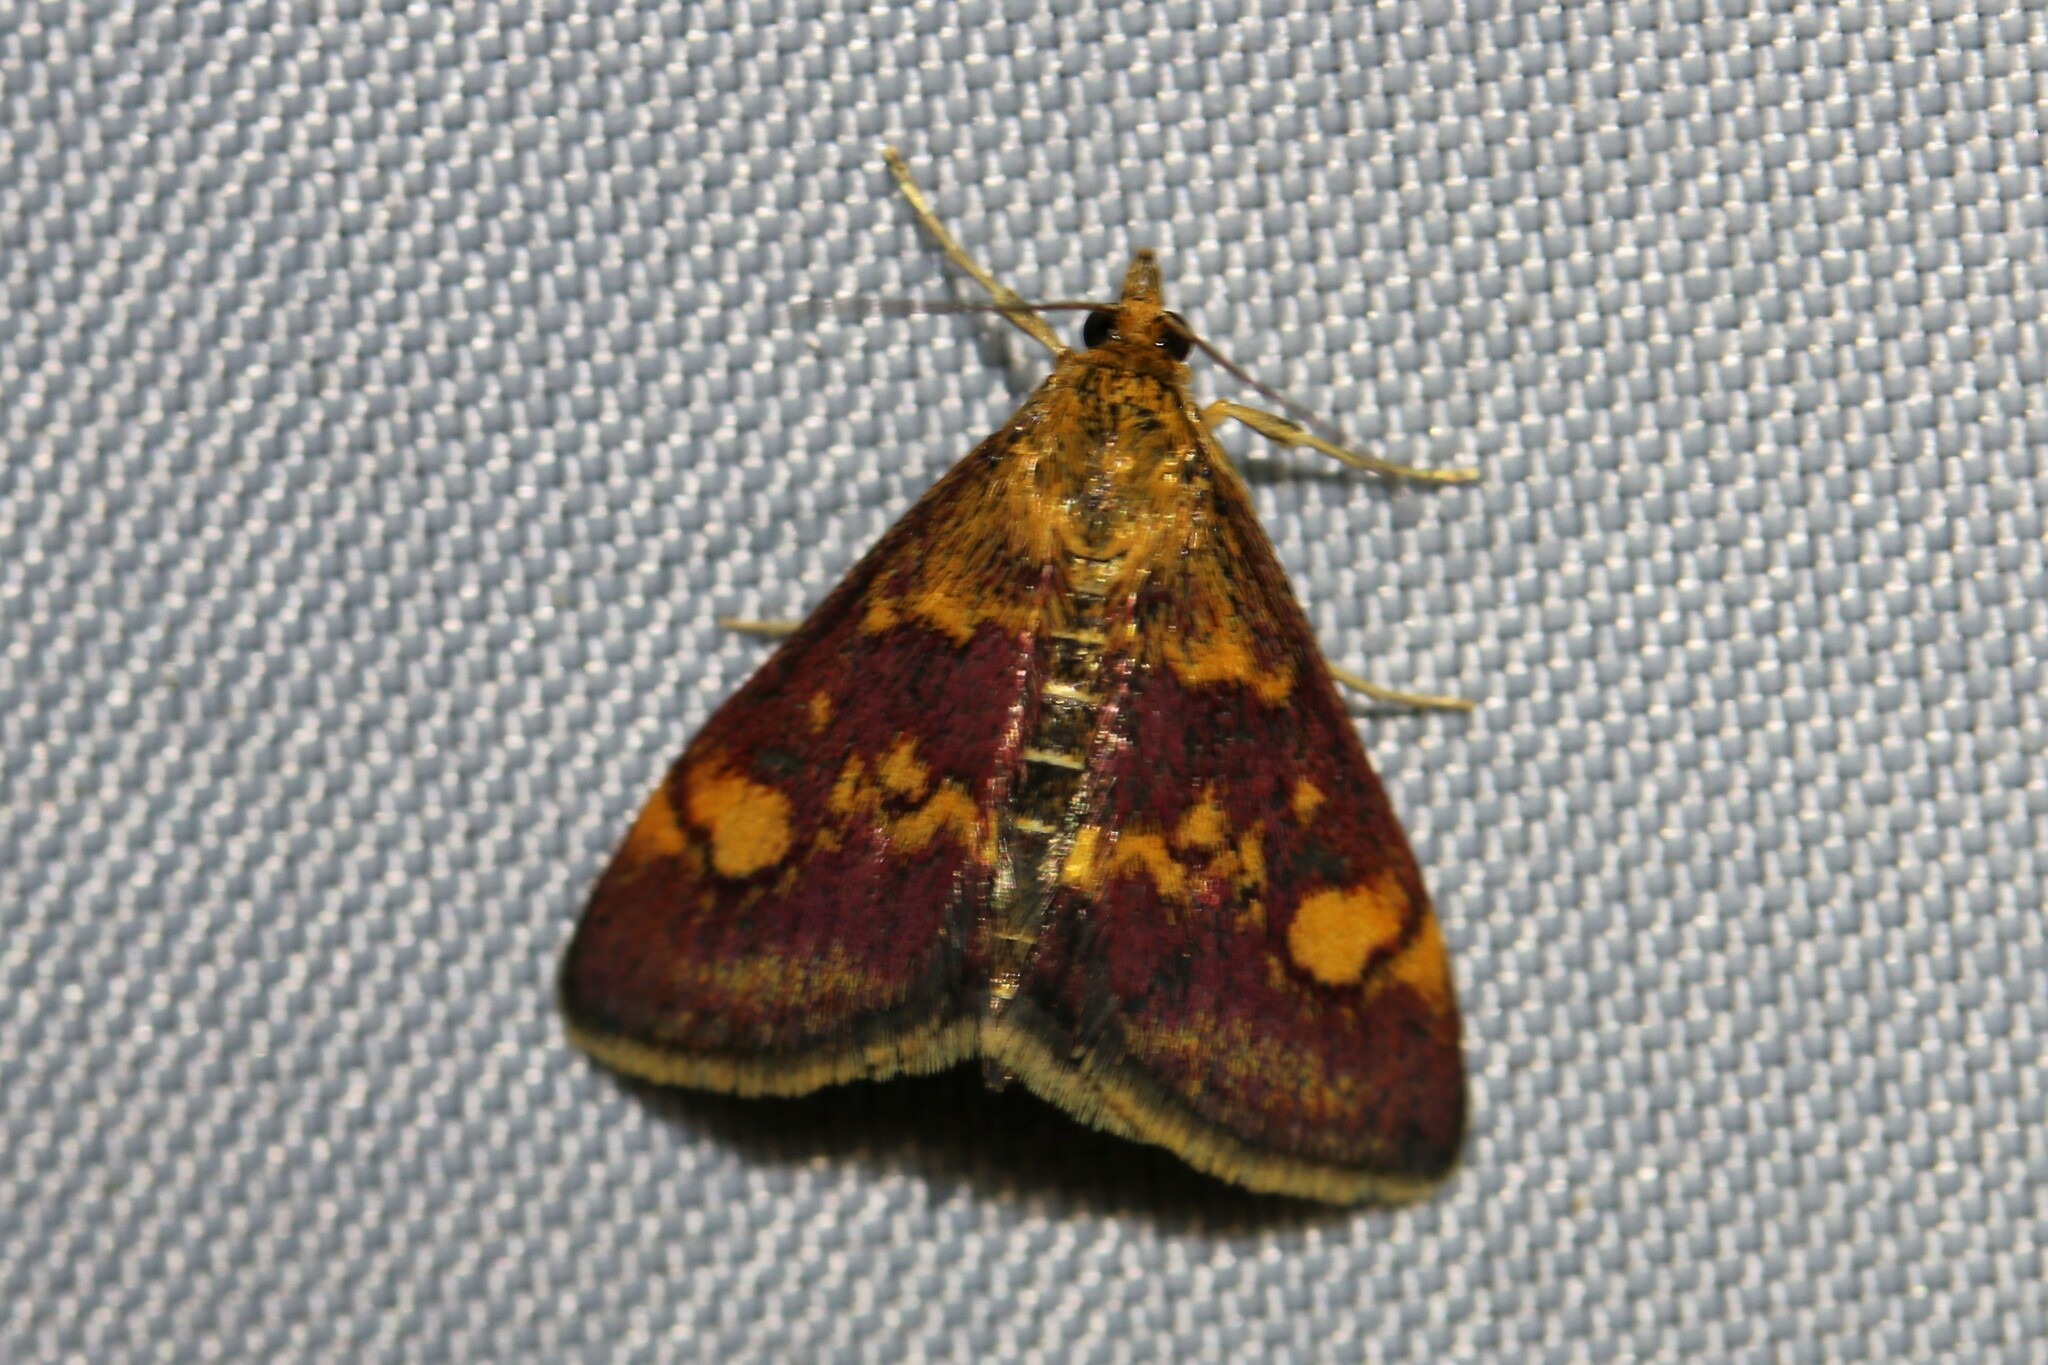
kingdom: Animalia
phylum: Arthropoda
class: Insecta
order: Lepidoptera
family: Crambidae
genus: Pyrausta
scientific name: Pyrausta aurata
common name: Small purple & gold
